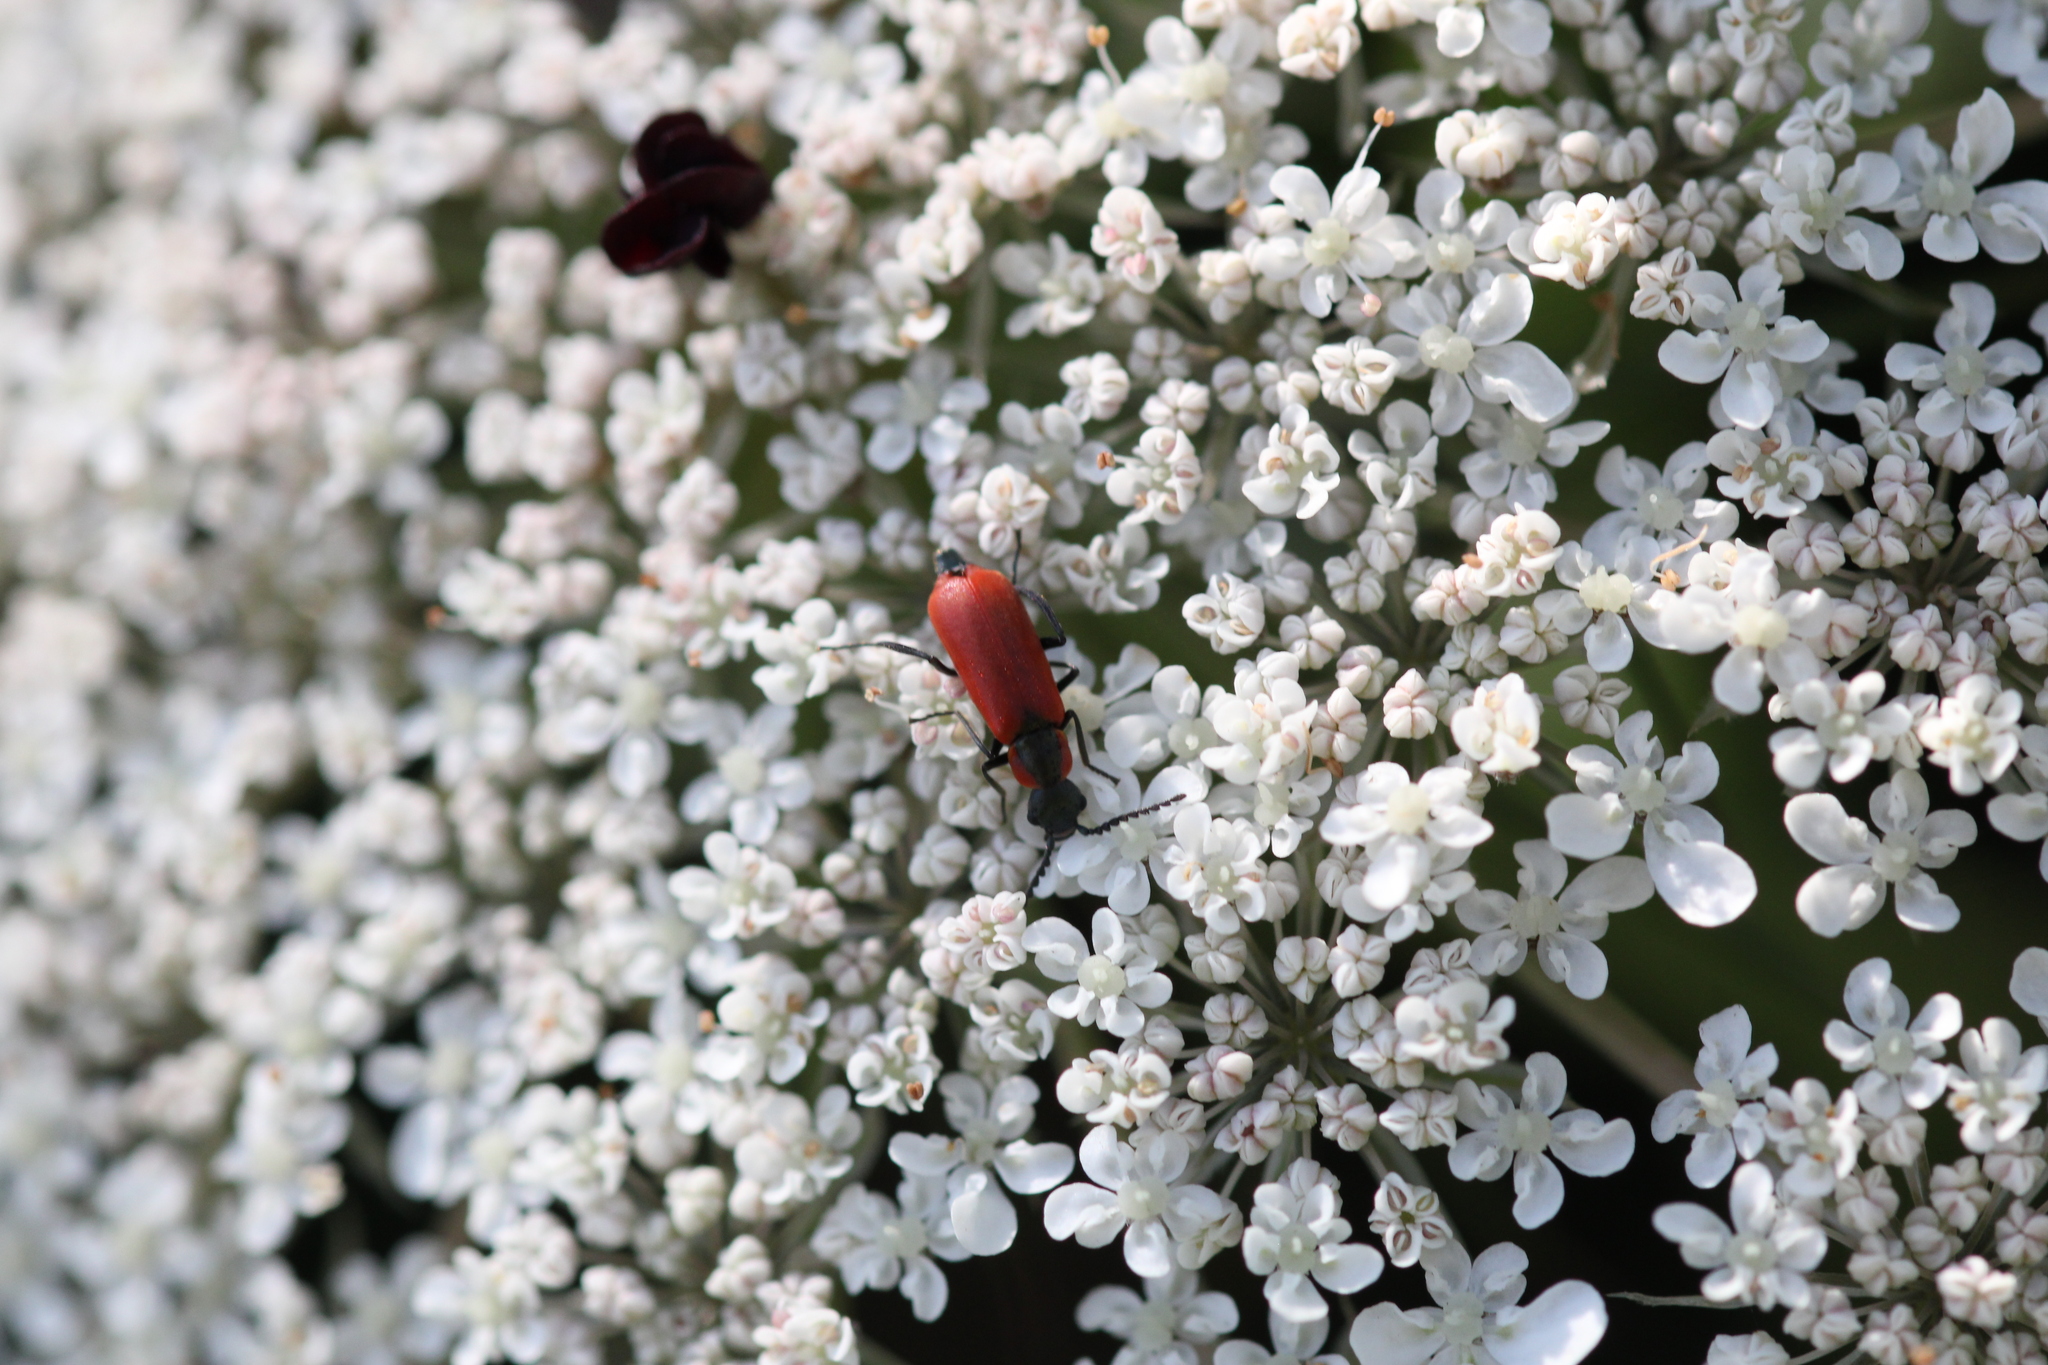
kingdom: Animalia
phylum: Arthropoda
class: Insecta
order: Coleoptera
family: Melyridae
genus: Anthocomus
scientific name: Anthocomus rufus
